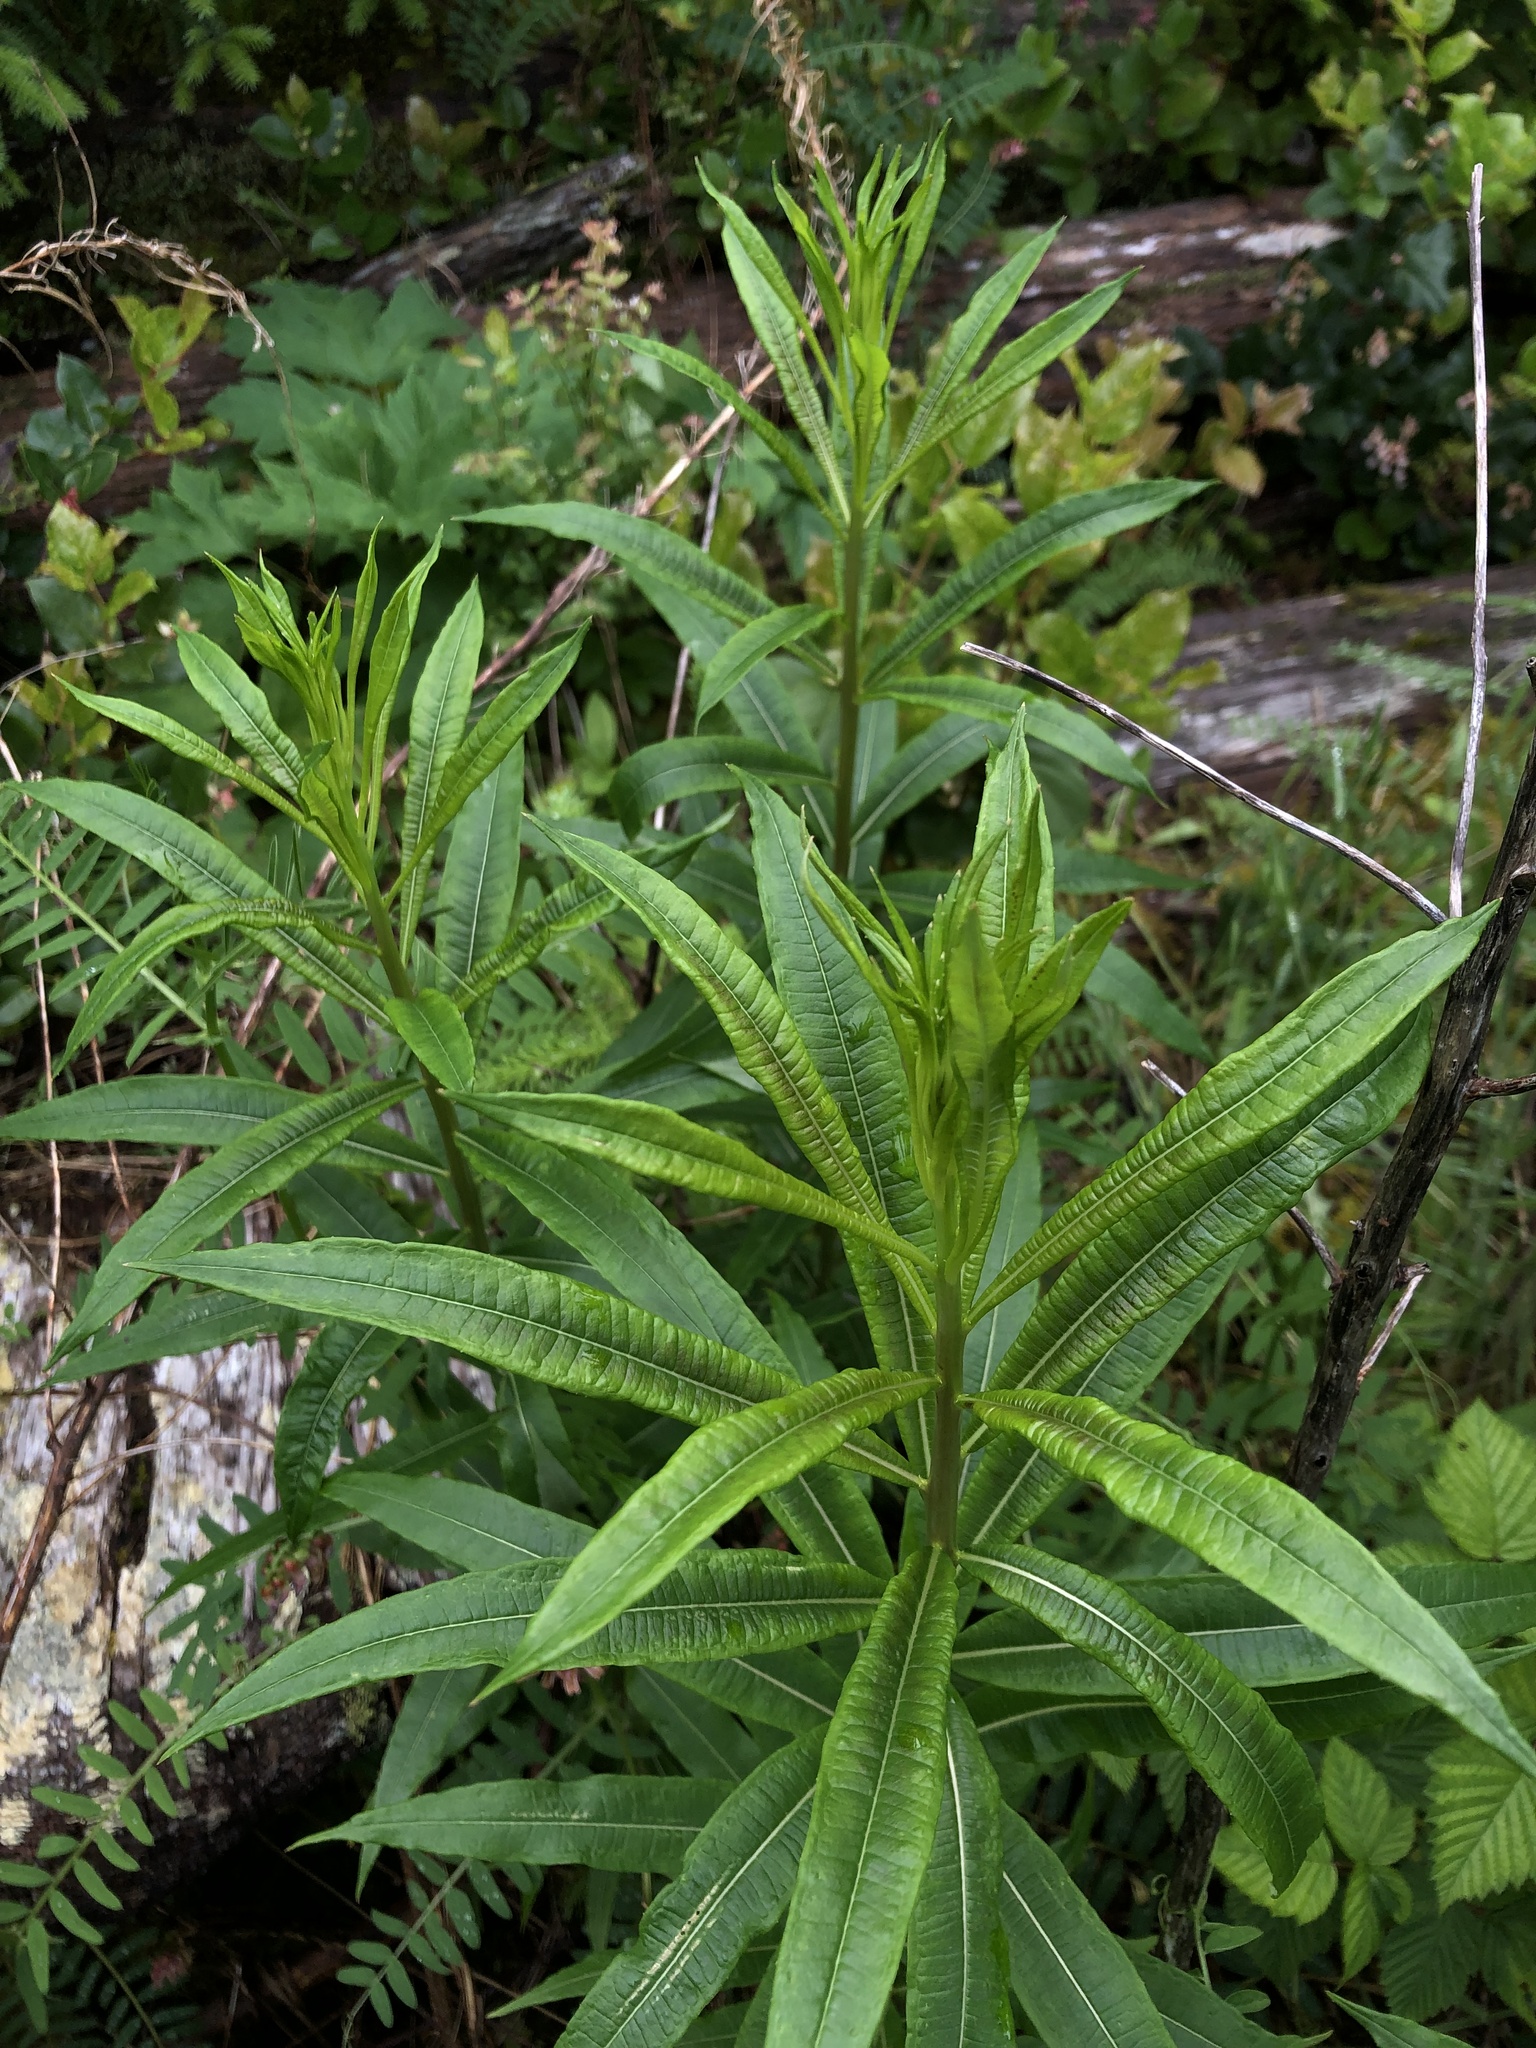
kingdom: Plantae
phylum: Tracheophyta
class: Magnoliopsida
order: Myrtales
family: Onagraceae
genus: Chamaenerion
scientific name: Chamaenerion angustifolium
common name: Fireweed
